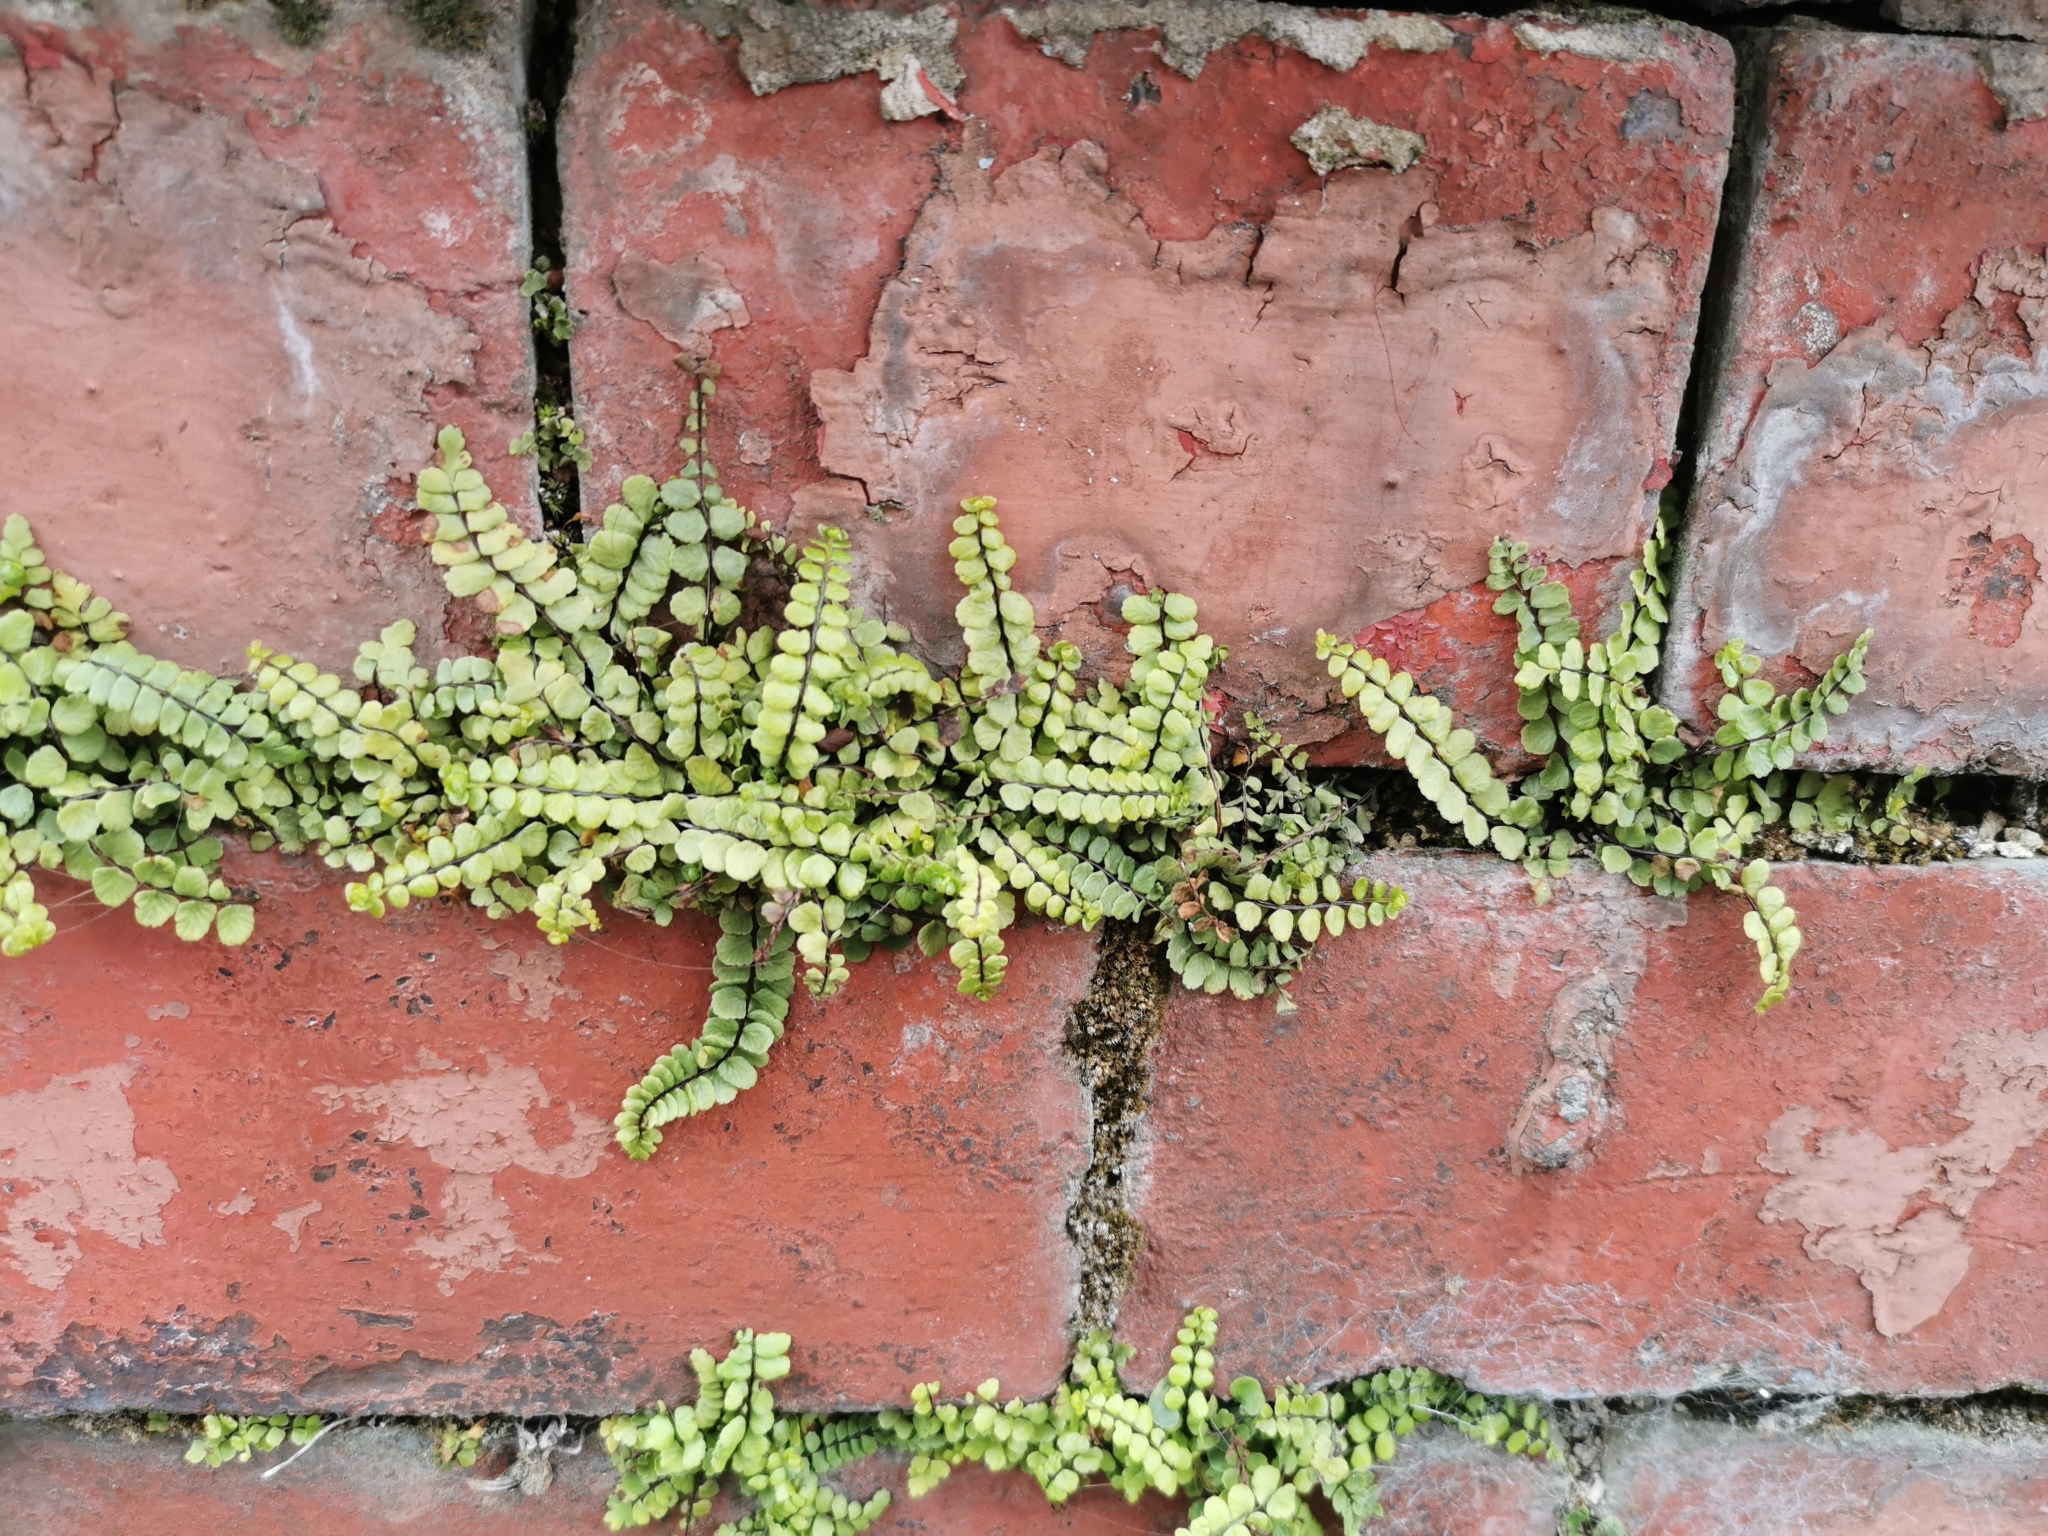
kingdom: Plantae
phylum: Tracheophyta
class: Polypodiopsida
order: Polypodiales
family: Aspleniaceae
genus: Asplenium
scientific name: Asplenium trichomanes
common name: Maidenhair spleenwort
